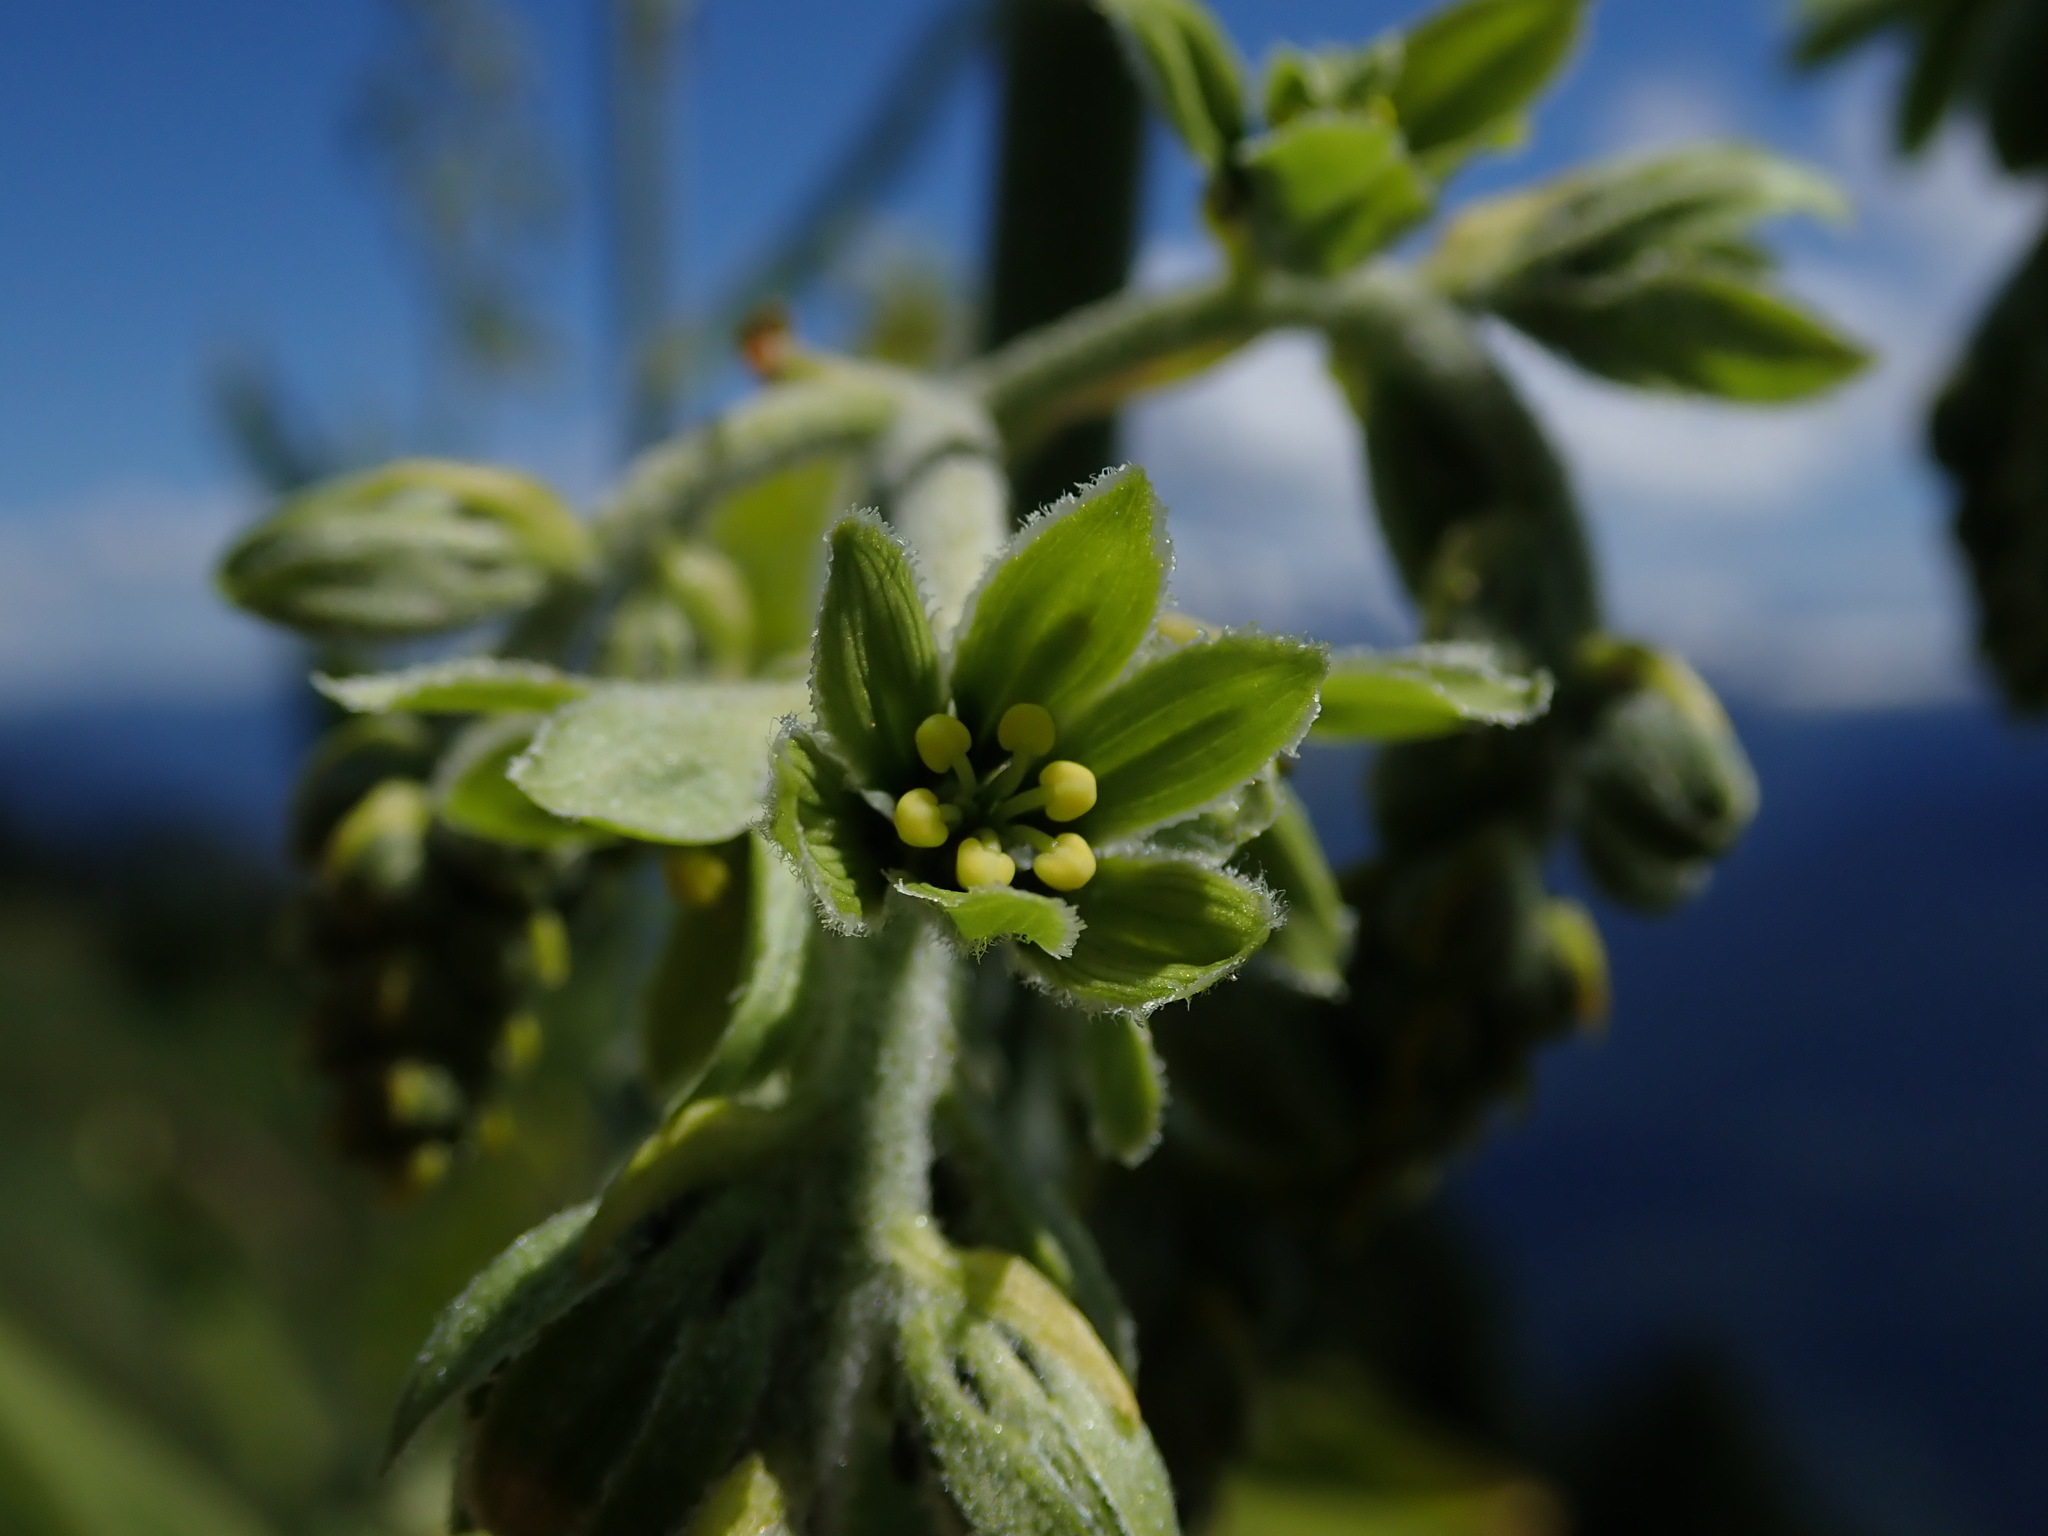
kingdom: Plantae
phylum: Tracheophyta
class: Liliopsida
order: Liliales
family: Melanthiaceae
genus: Veratrum
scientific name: Veratrum viride
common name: American false hellebore
